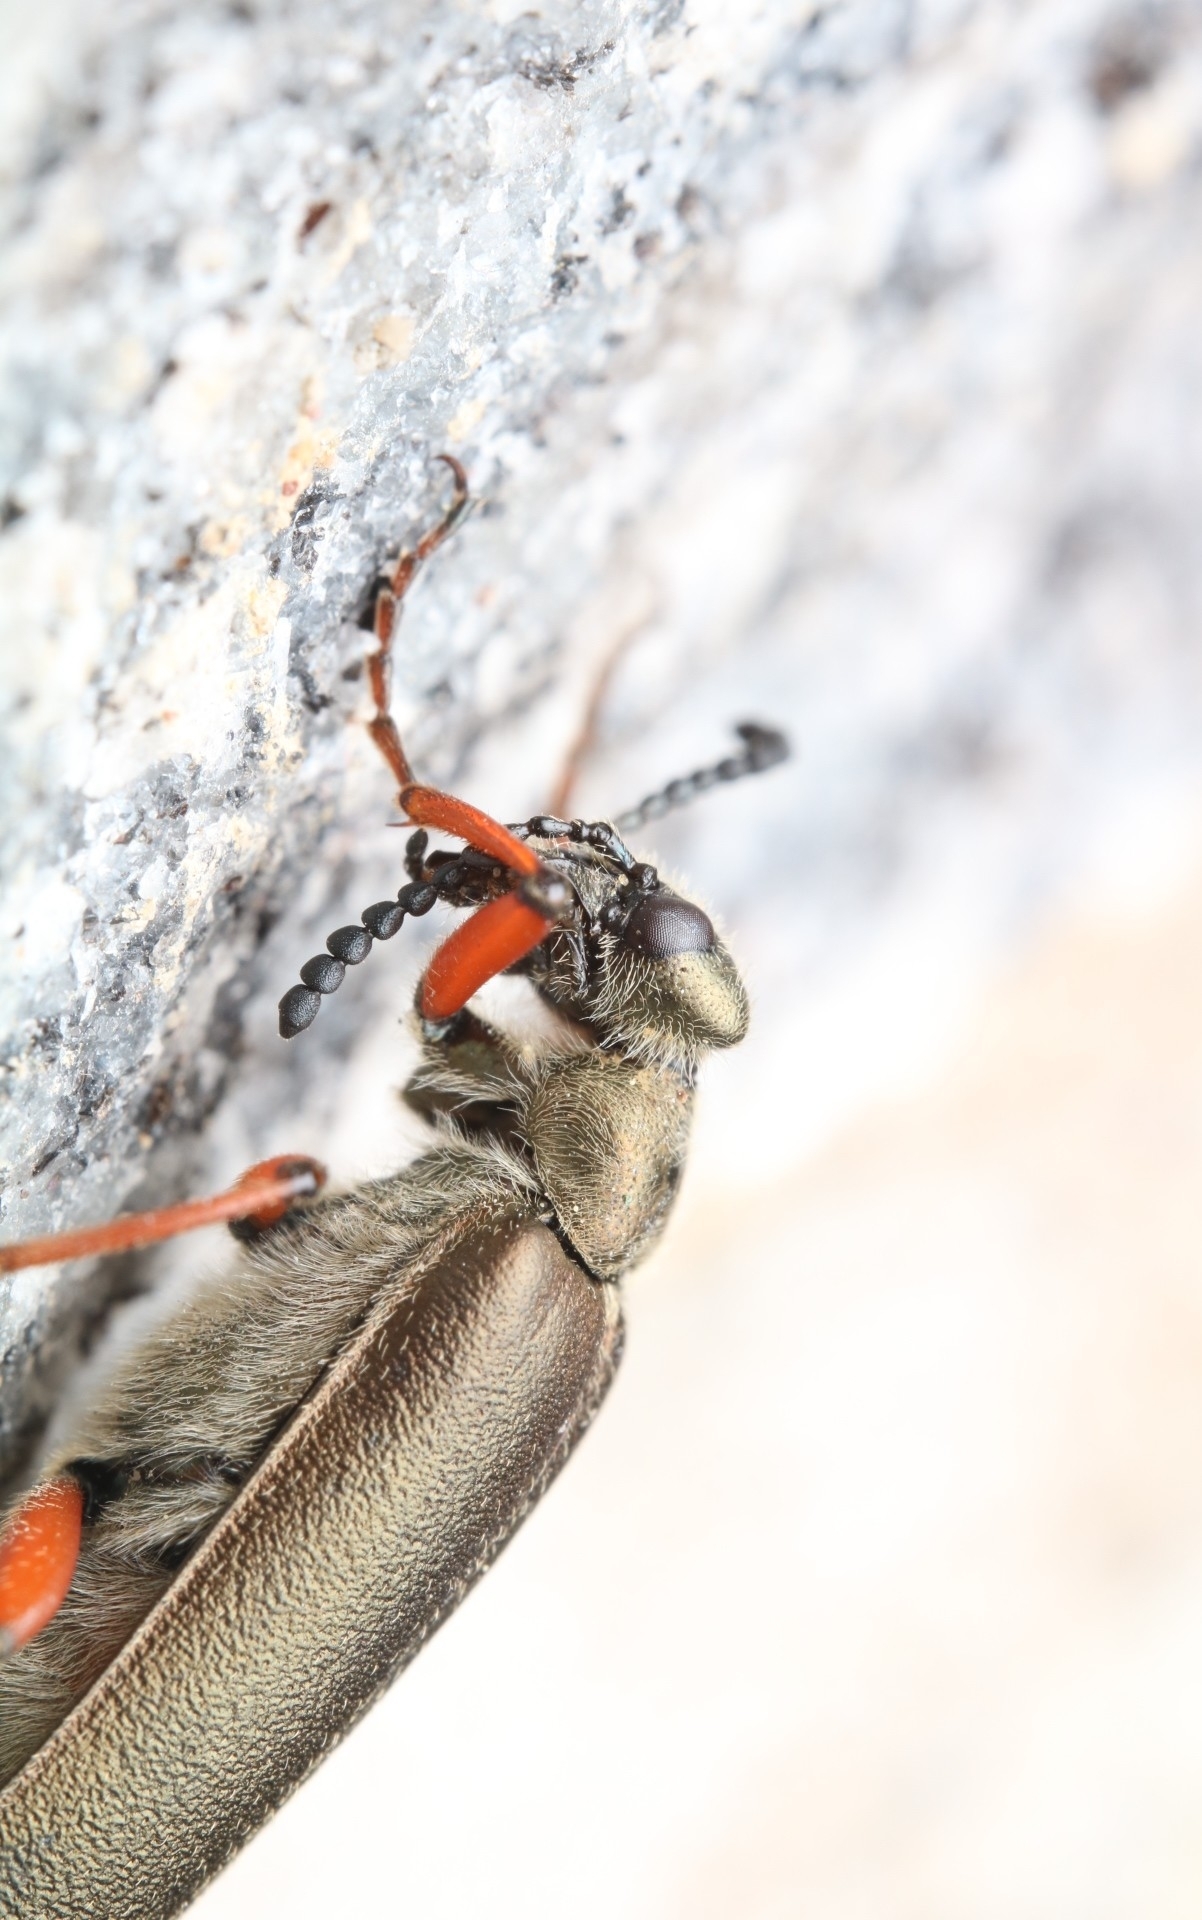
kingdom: Animalia
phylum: Arthropoda
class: Insecta
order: Coleoptera
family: Meloidae
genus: Lytta
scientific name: Lytta aenea
